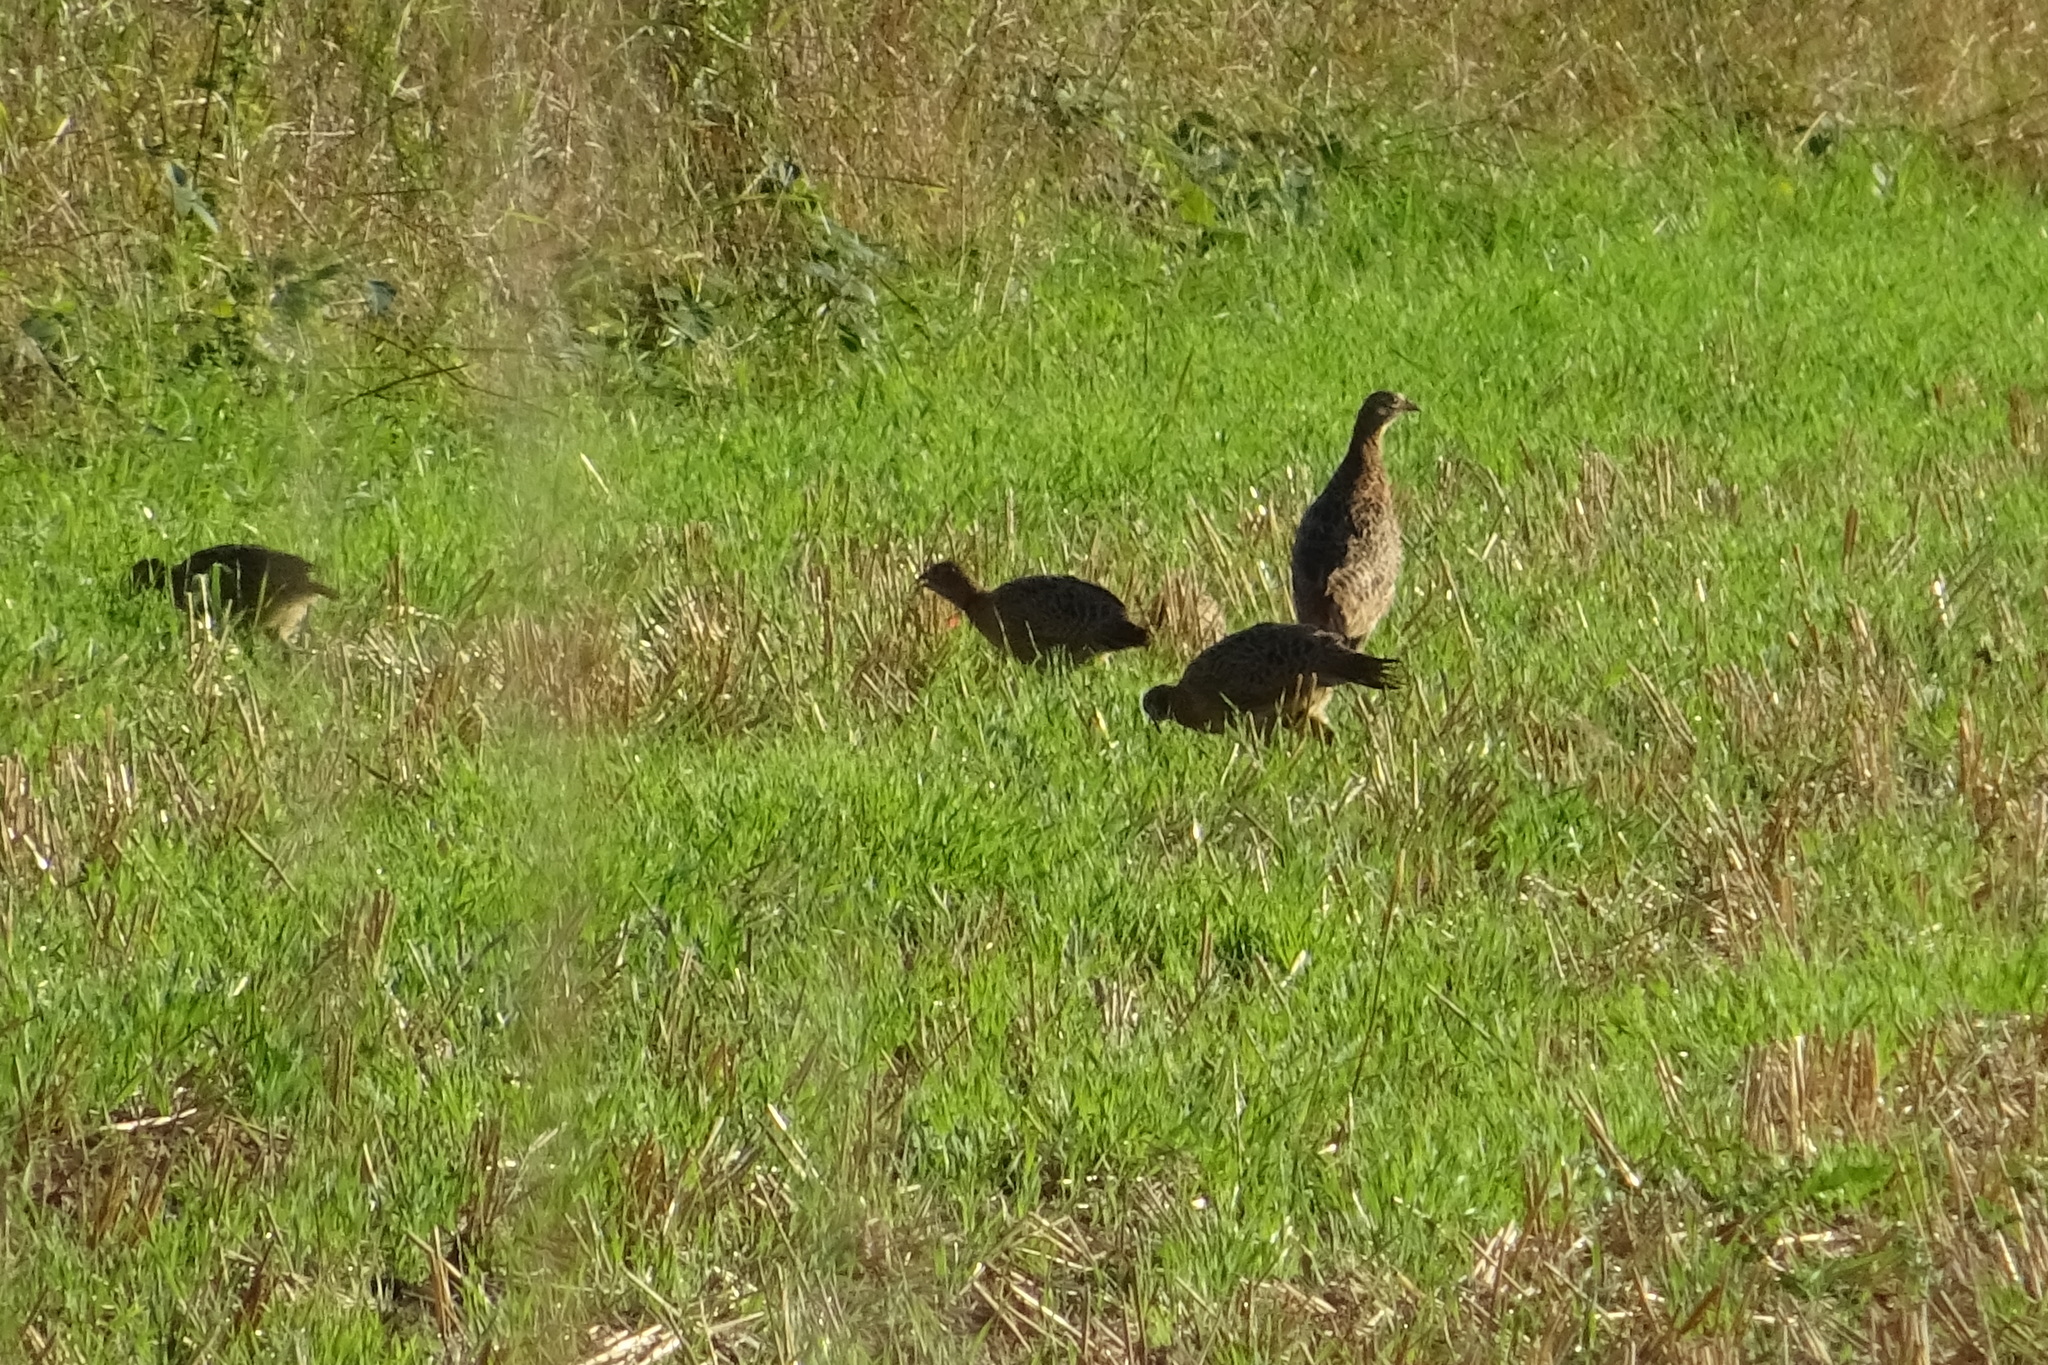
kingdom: Animalia
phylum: Chordata
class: Aves
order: Galliformes
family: Phasianidae
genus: Phasianus
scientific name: Phasianus colchicus
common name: Common pheasant
